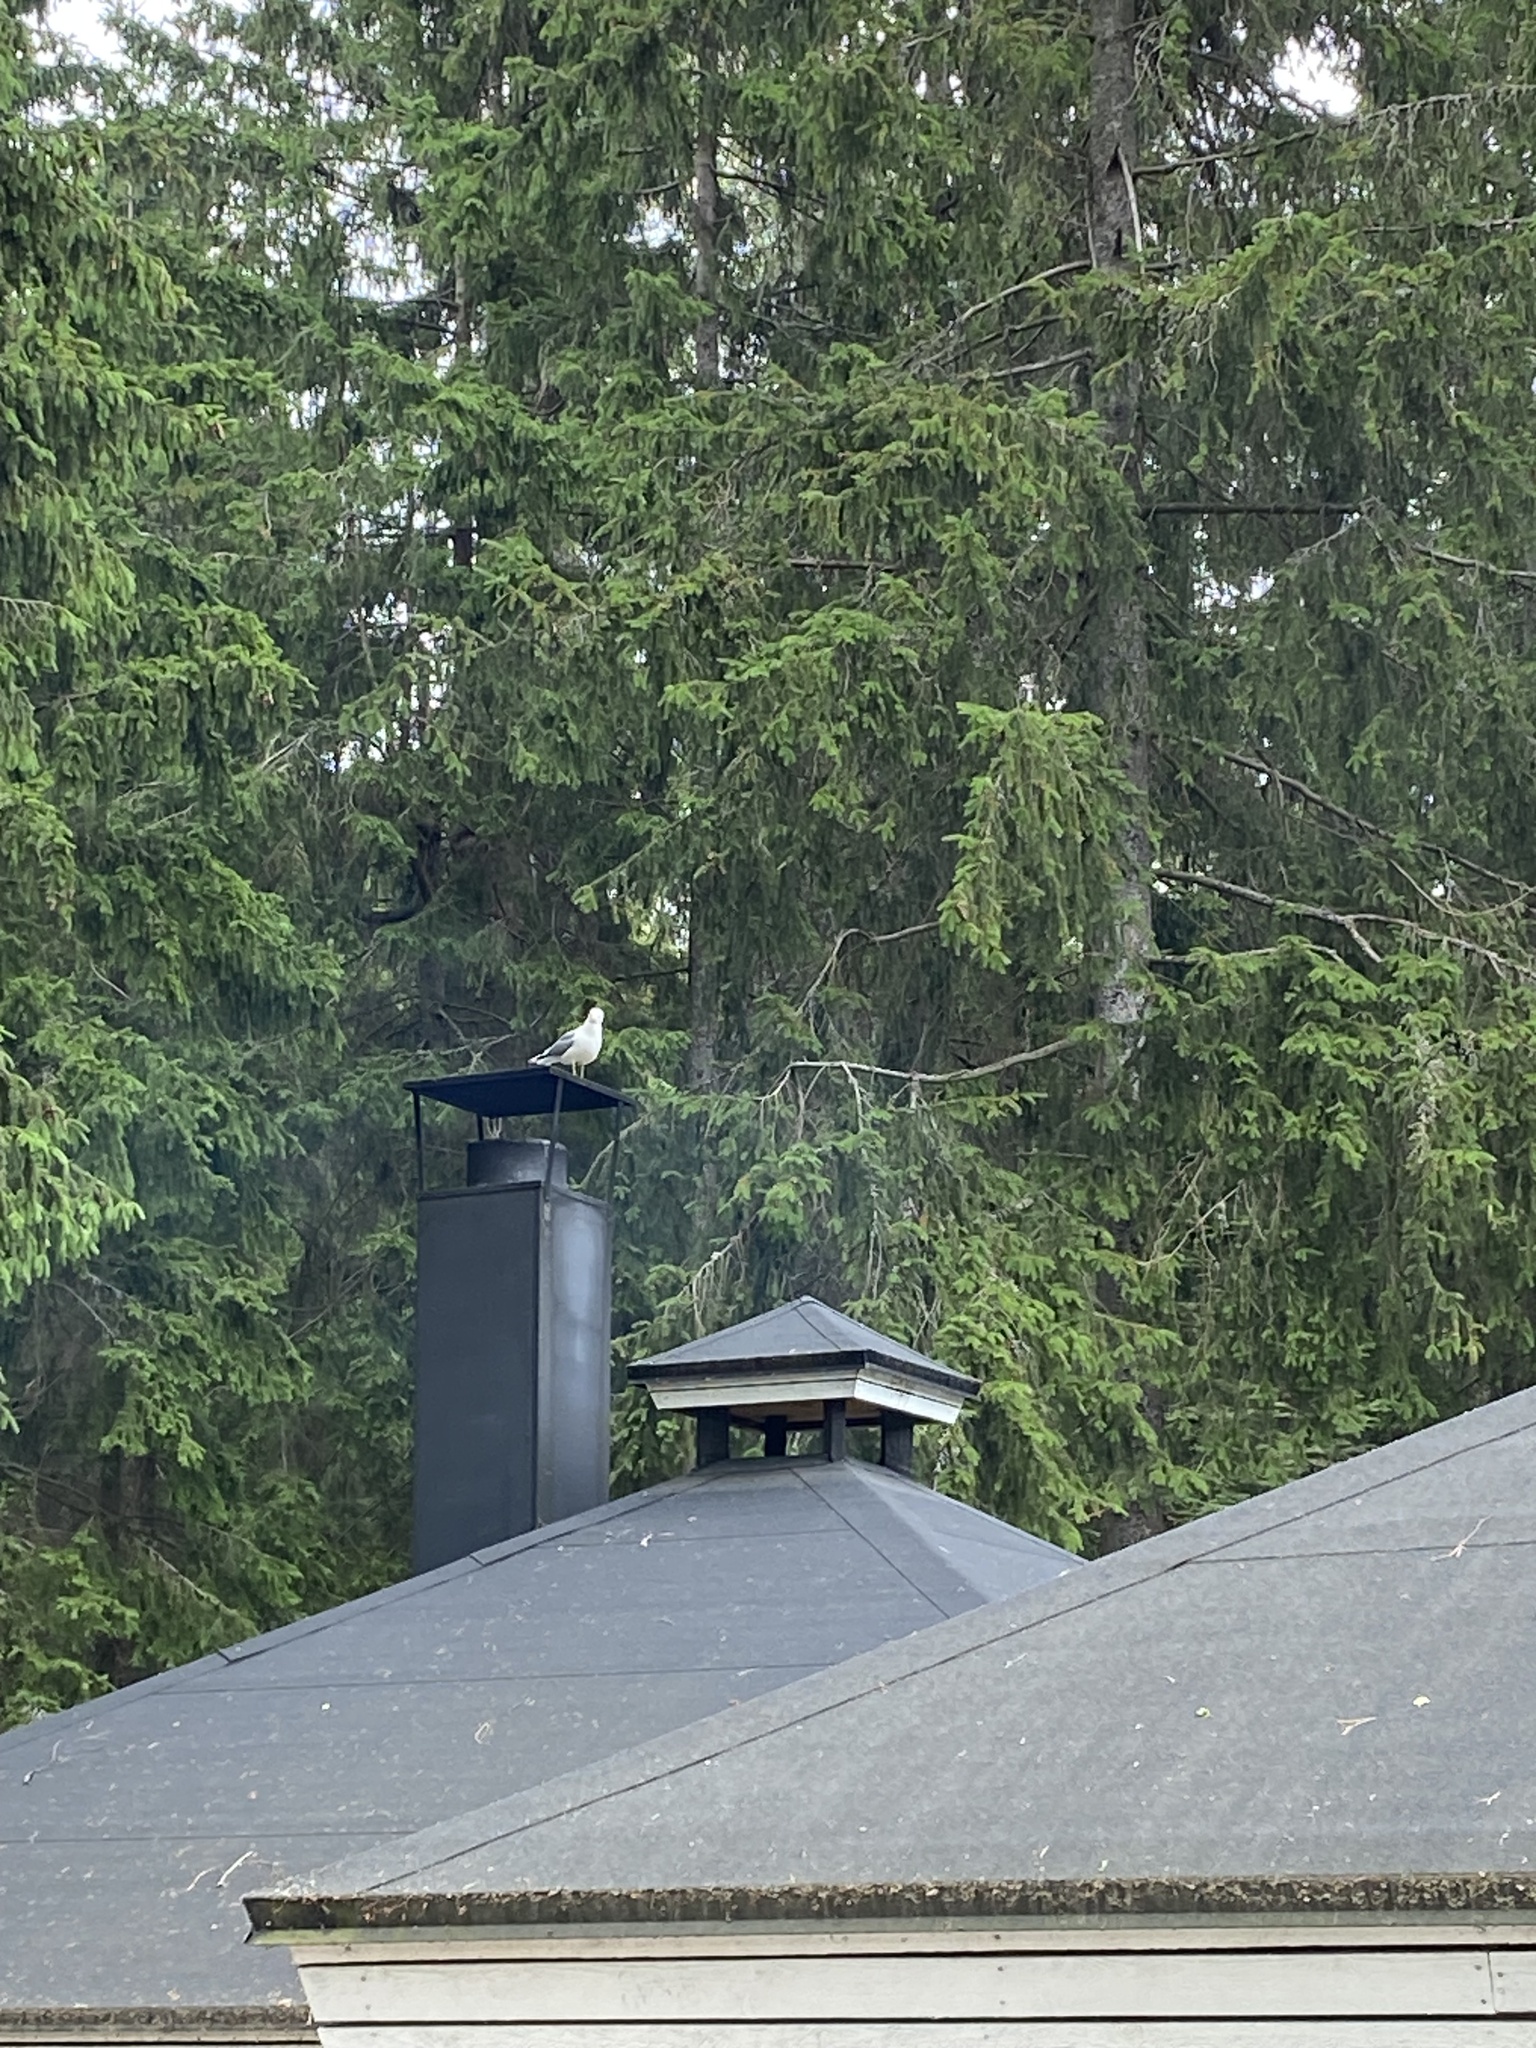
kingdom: Animalia
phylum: Chordata
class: Aves
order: Charadriiformes
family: Laridae
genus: Larus
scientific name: Larus canus
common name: Mew gull
